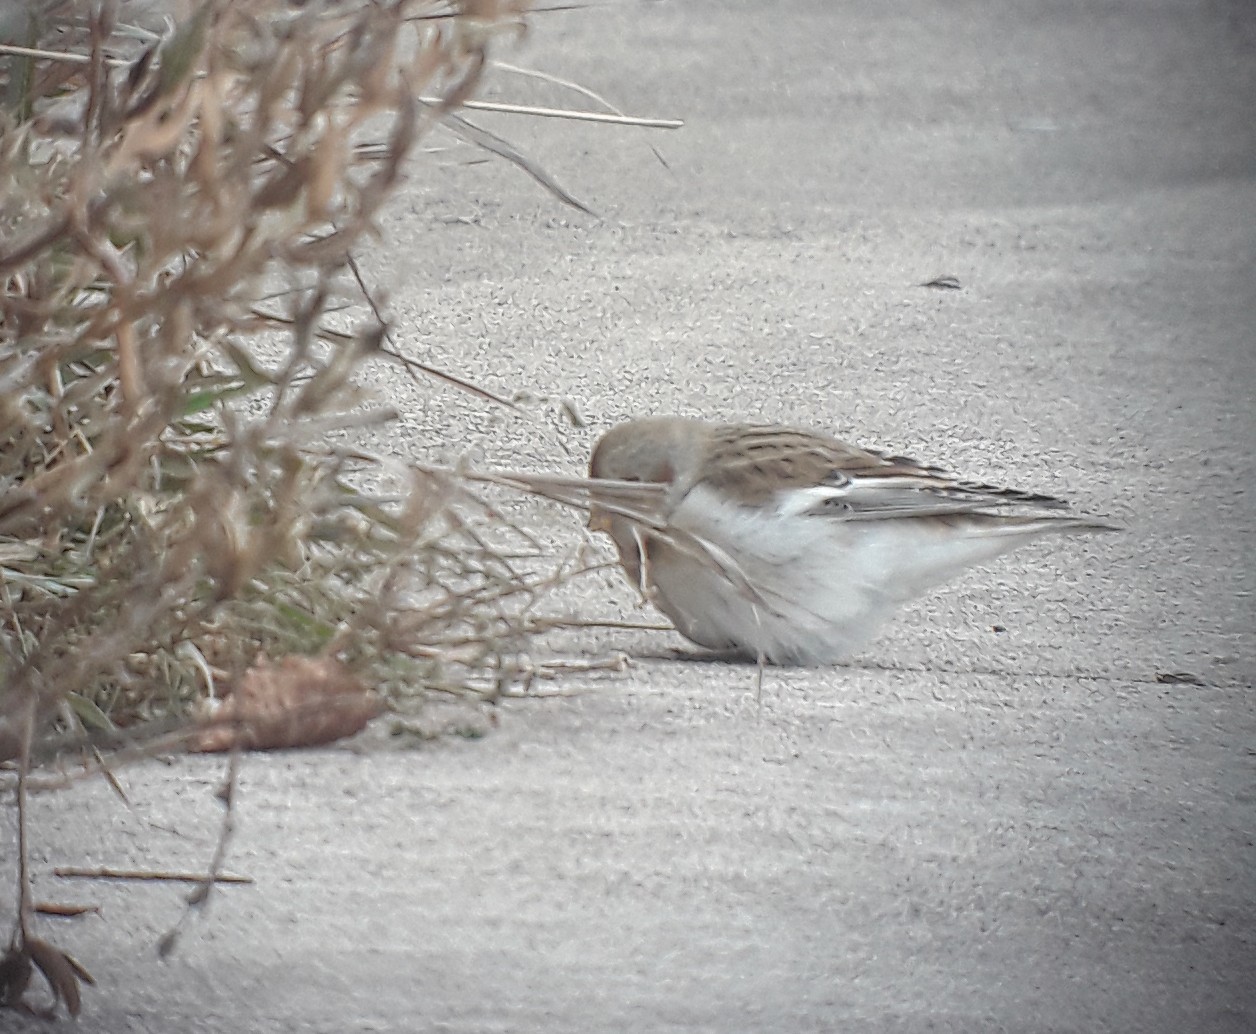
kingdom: Animalia
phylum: Chordata
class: Aves
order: Passeriformes
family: Calcariidae
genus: Plectrophenax
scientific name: Plectrophenax nivalis
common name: Snow bunting
